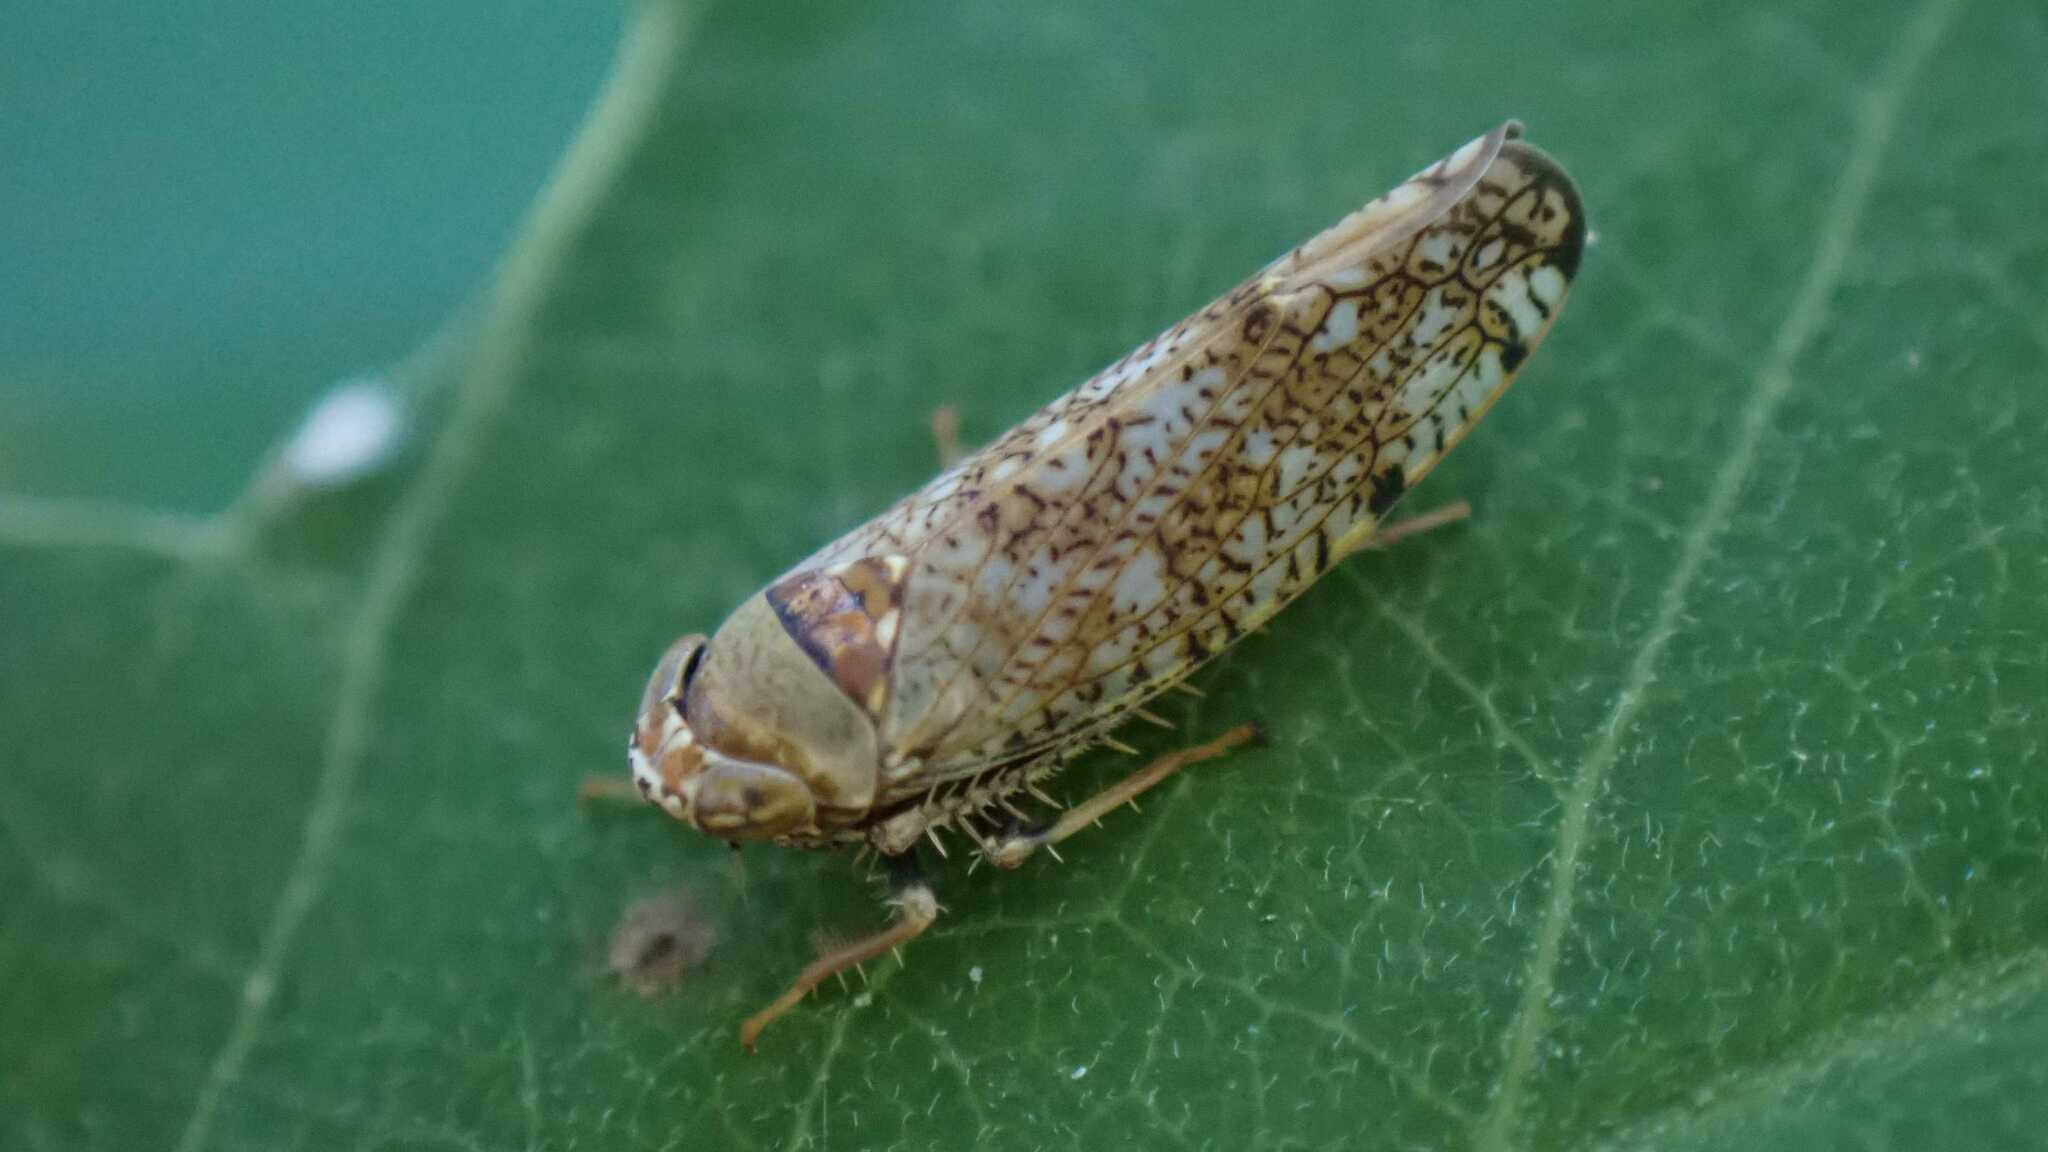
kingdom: Animalia
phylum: Arthropoda
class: Insecta
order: Hemiptera
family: Cicadellidae
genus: Orientus
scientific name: Orientus ishidae
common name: Japanese leafhopper
